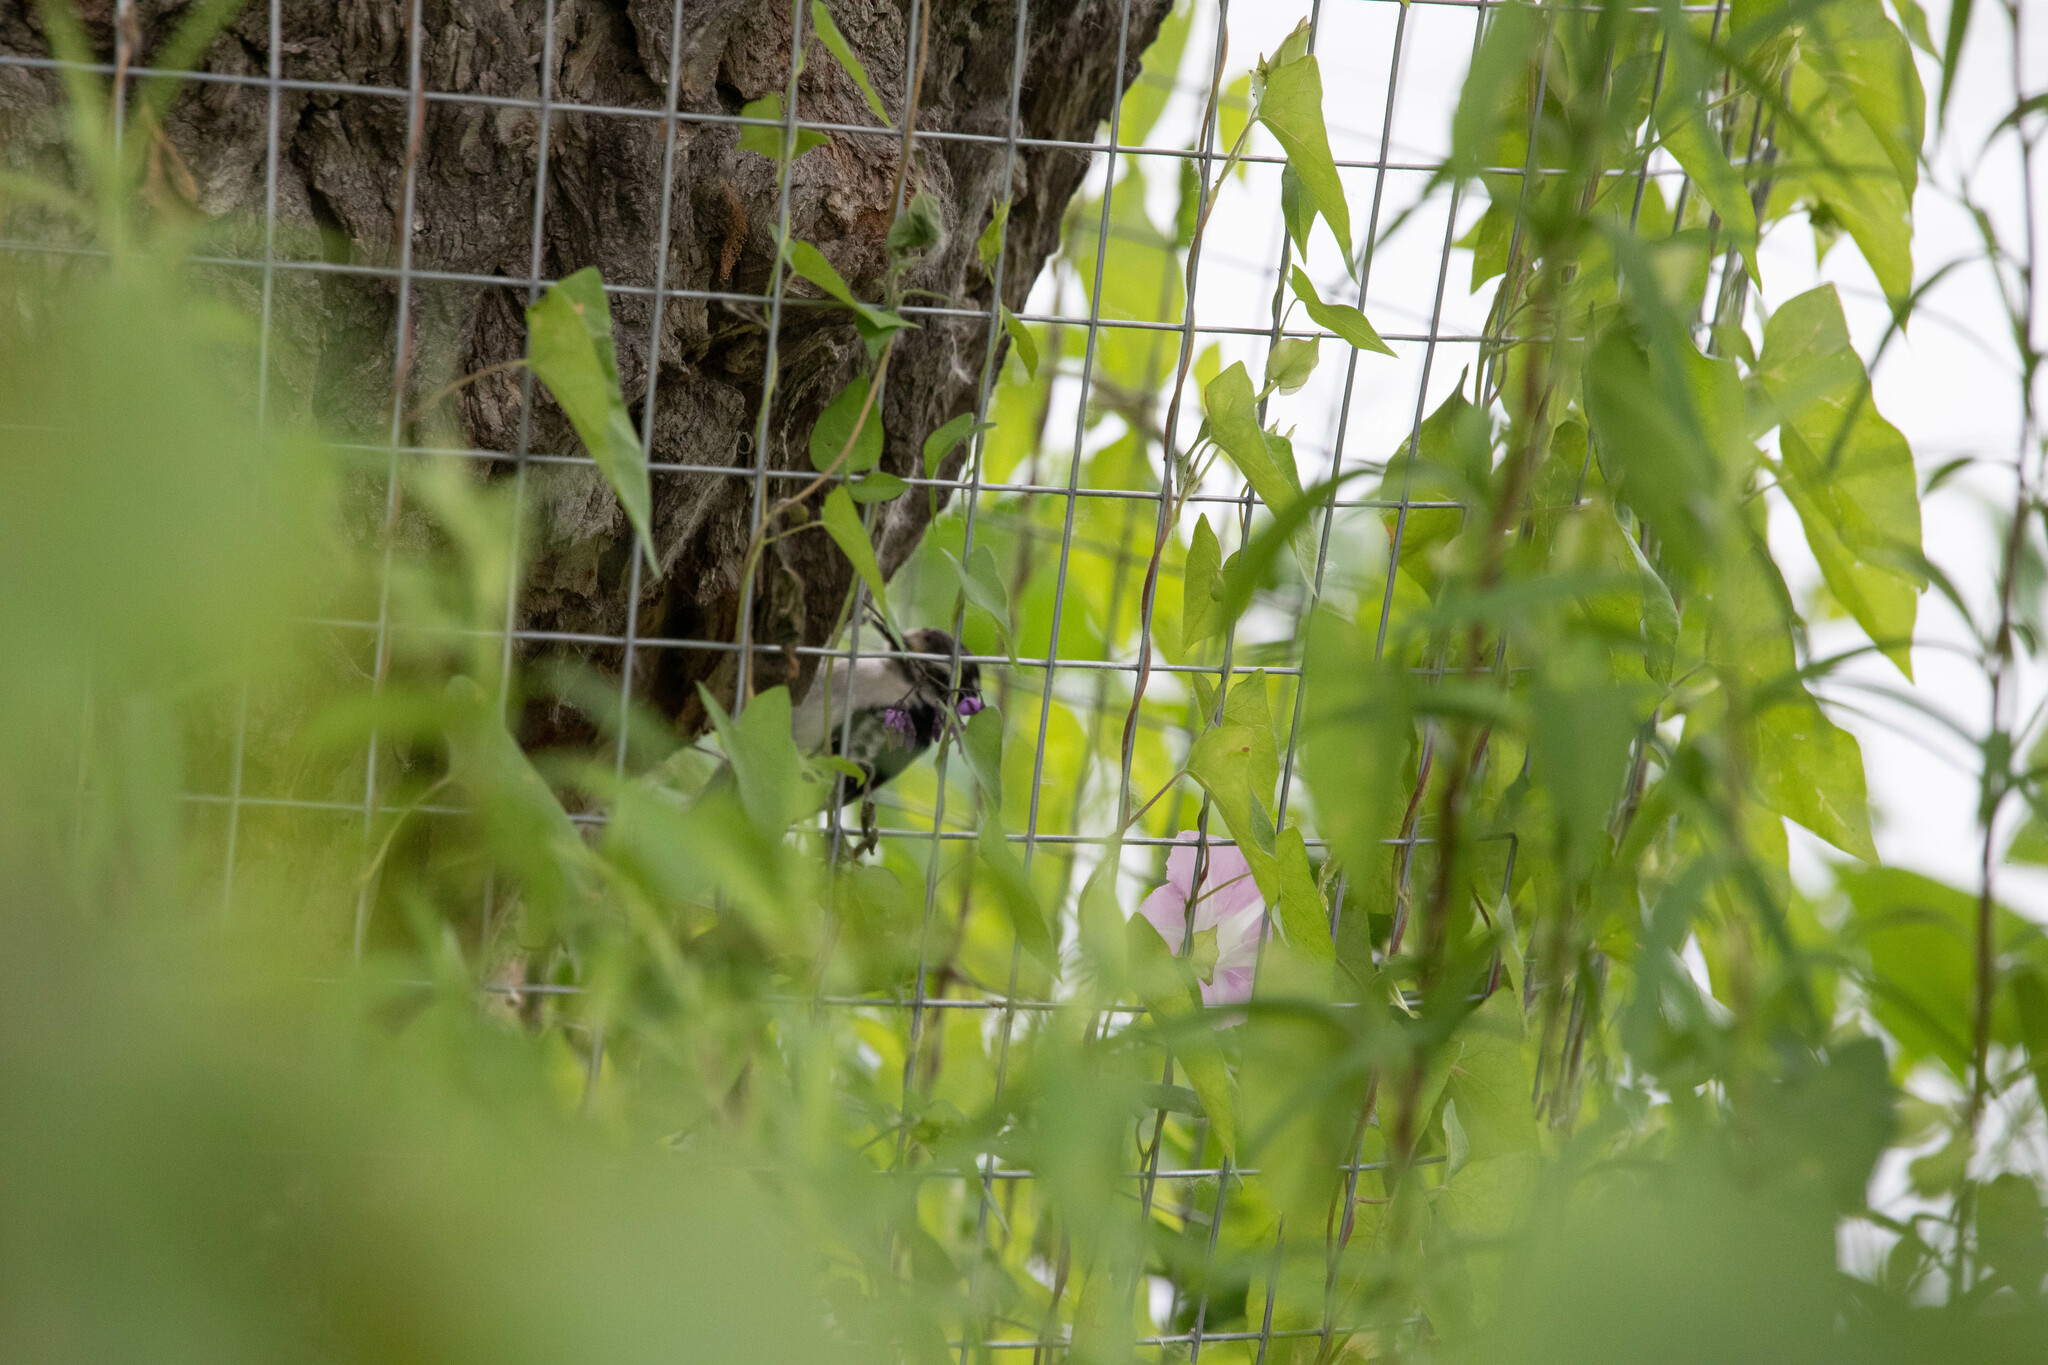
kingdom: Animalia
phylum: Chordata
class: Aves
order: Piciformes
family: Picidae
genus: Dryobates
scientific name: Dryobates pubescens
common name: Downy woodpecker
